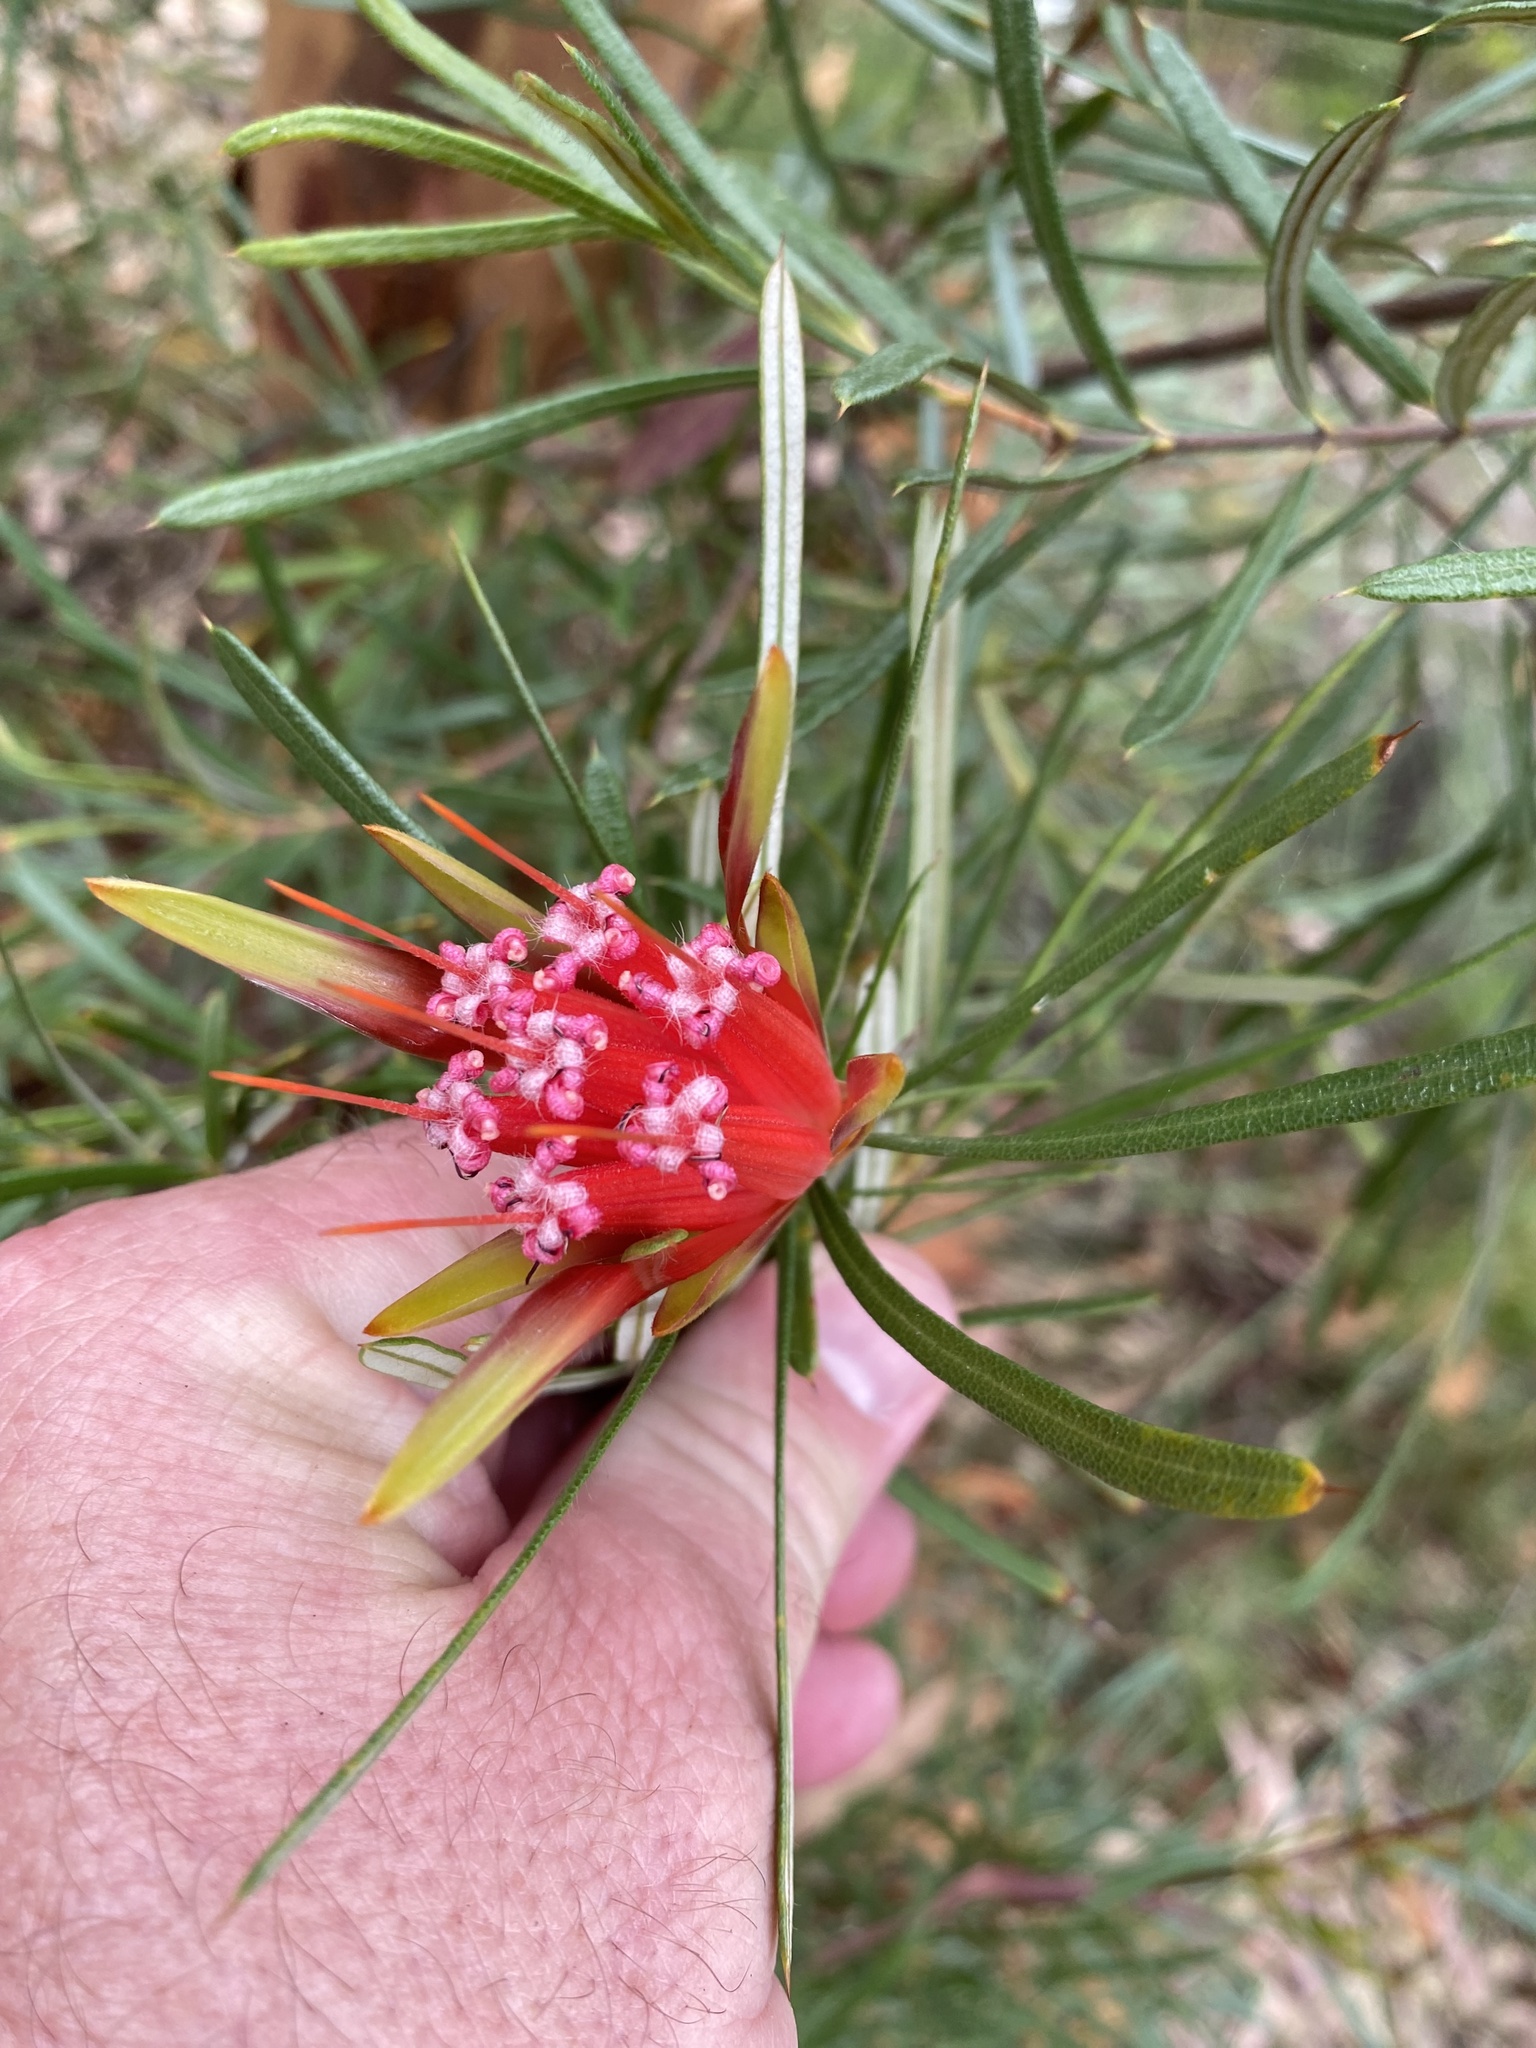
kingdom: Plantae
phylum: Tracheophyta
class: Magnoliopsida
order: Proteales
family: Proteaceae
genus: Lambertia
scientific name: Lambertia formosa
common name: Mountain-devil
